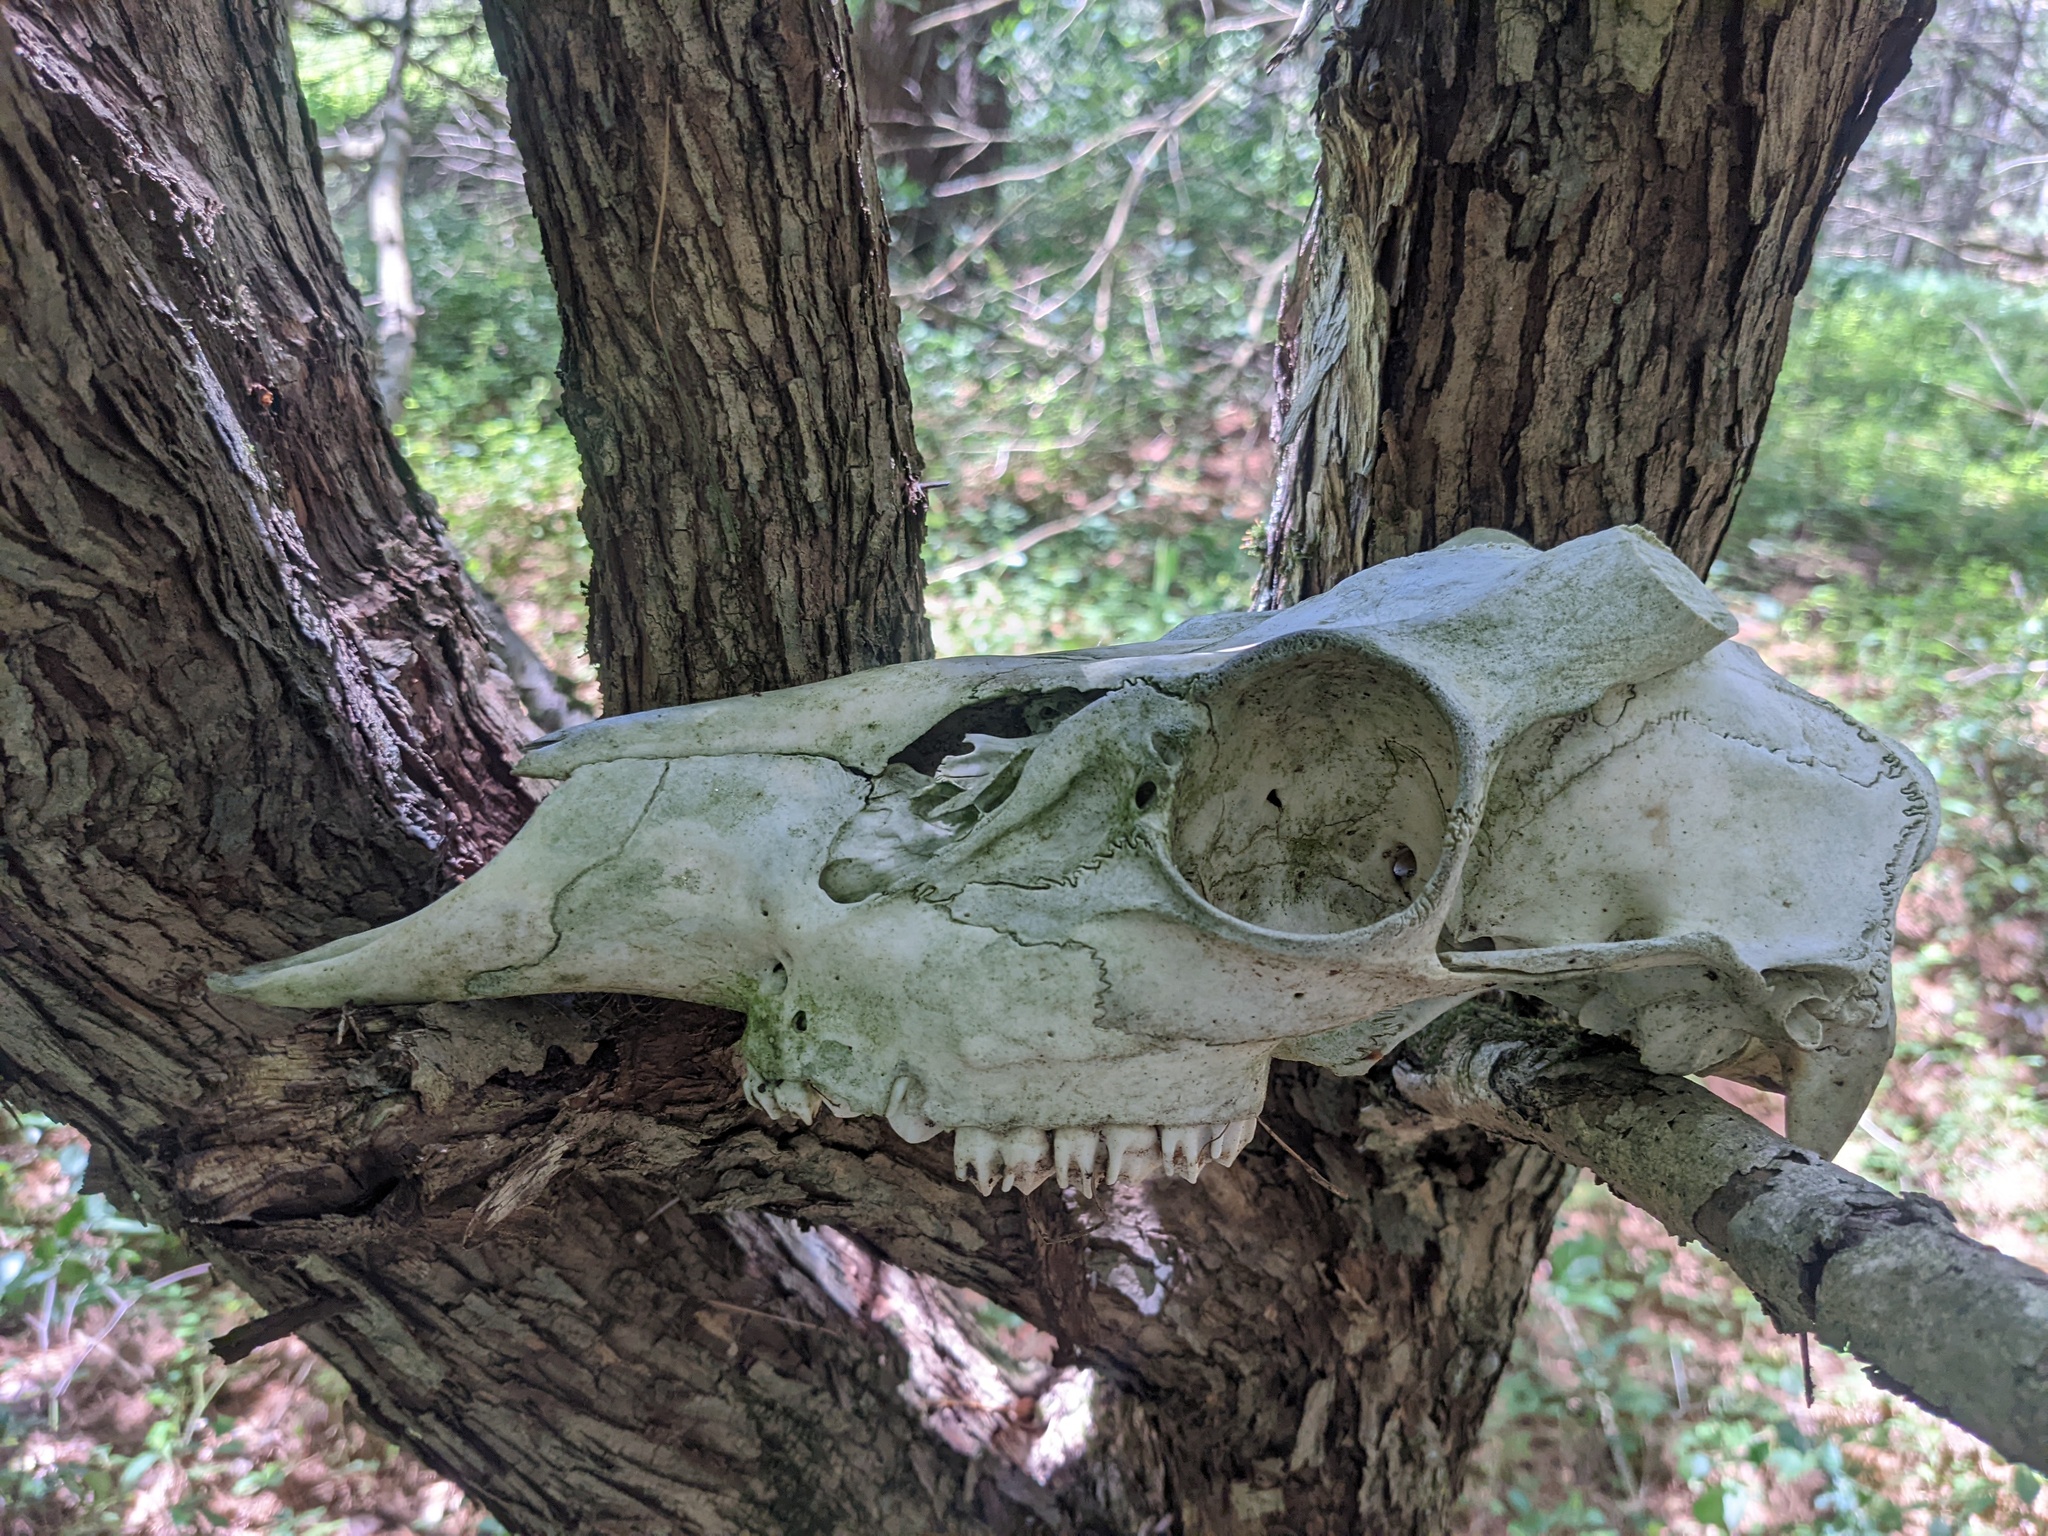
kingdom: Animalia
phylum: Chordata
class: Mammalia
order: Artiodactyla
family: Cervidae
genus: Odocoileus
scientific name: Odocoileus virginianus
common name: White-tailed deer
